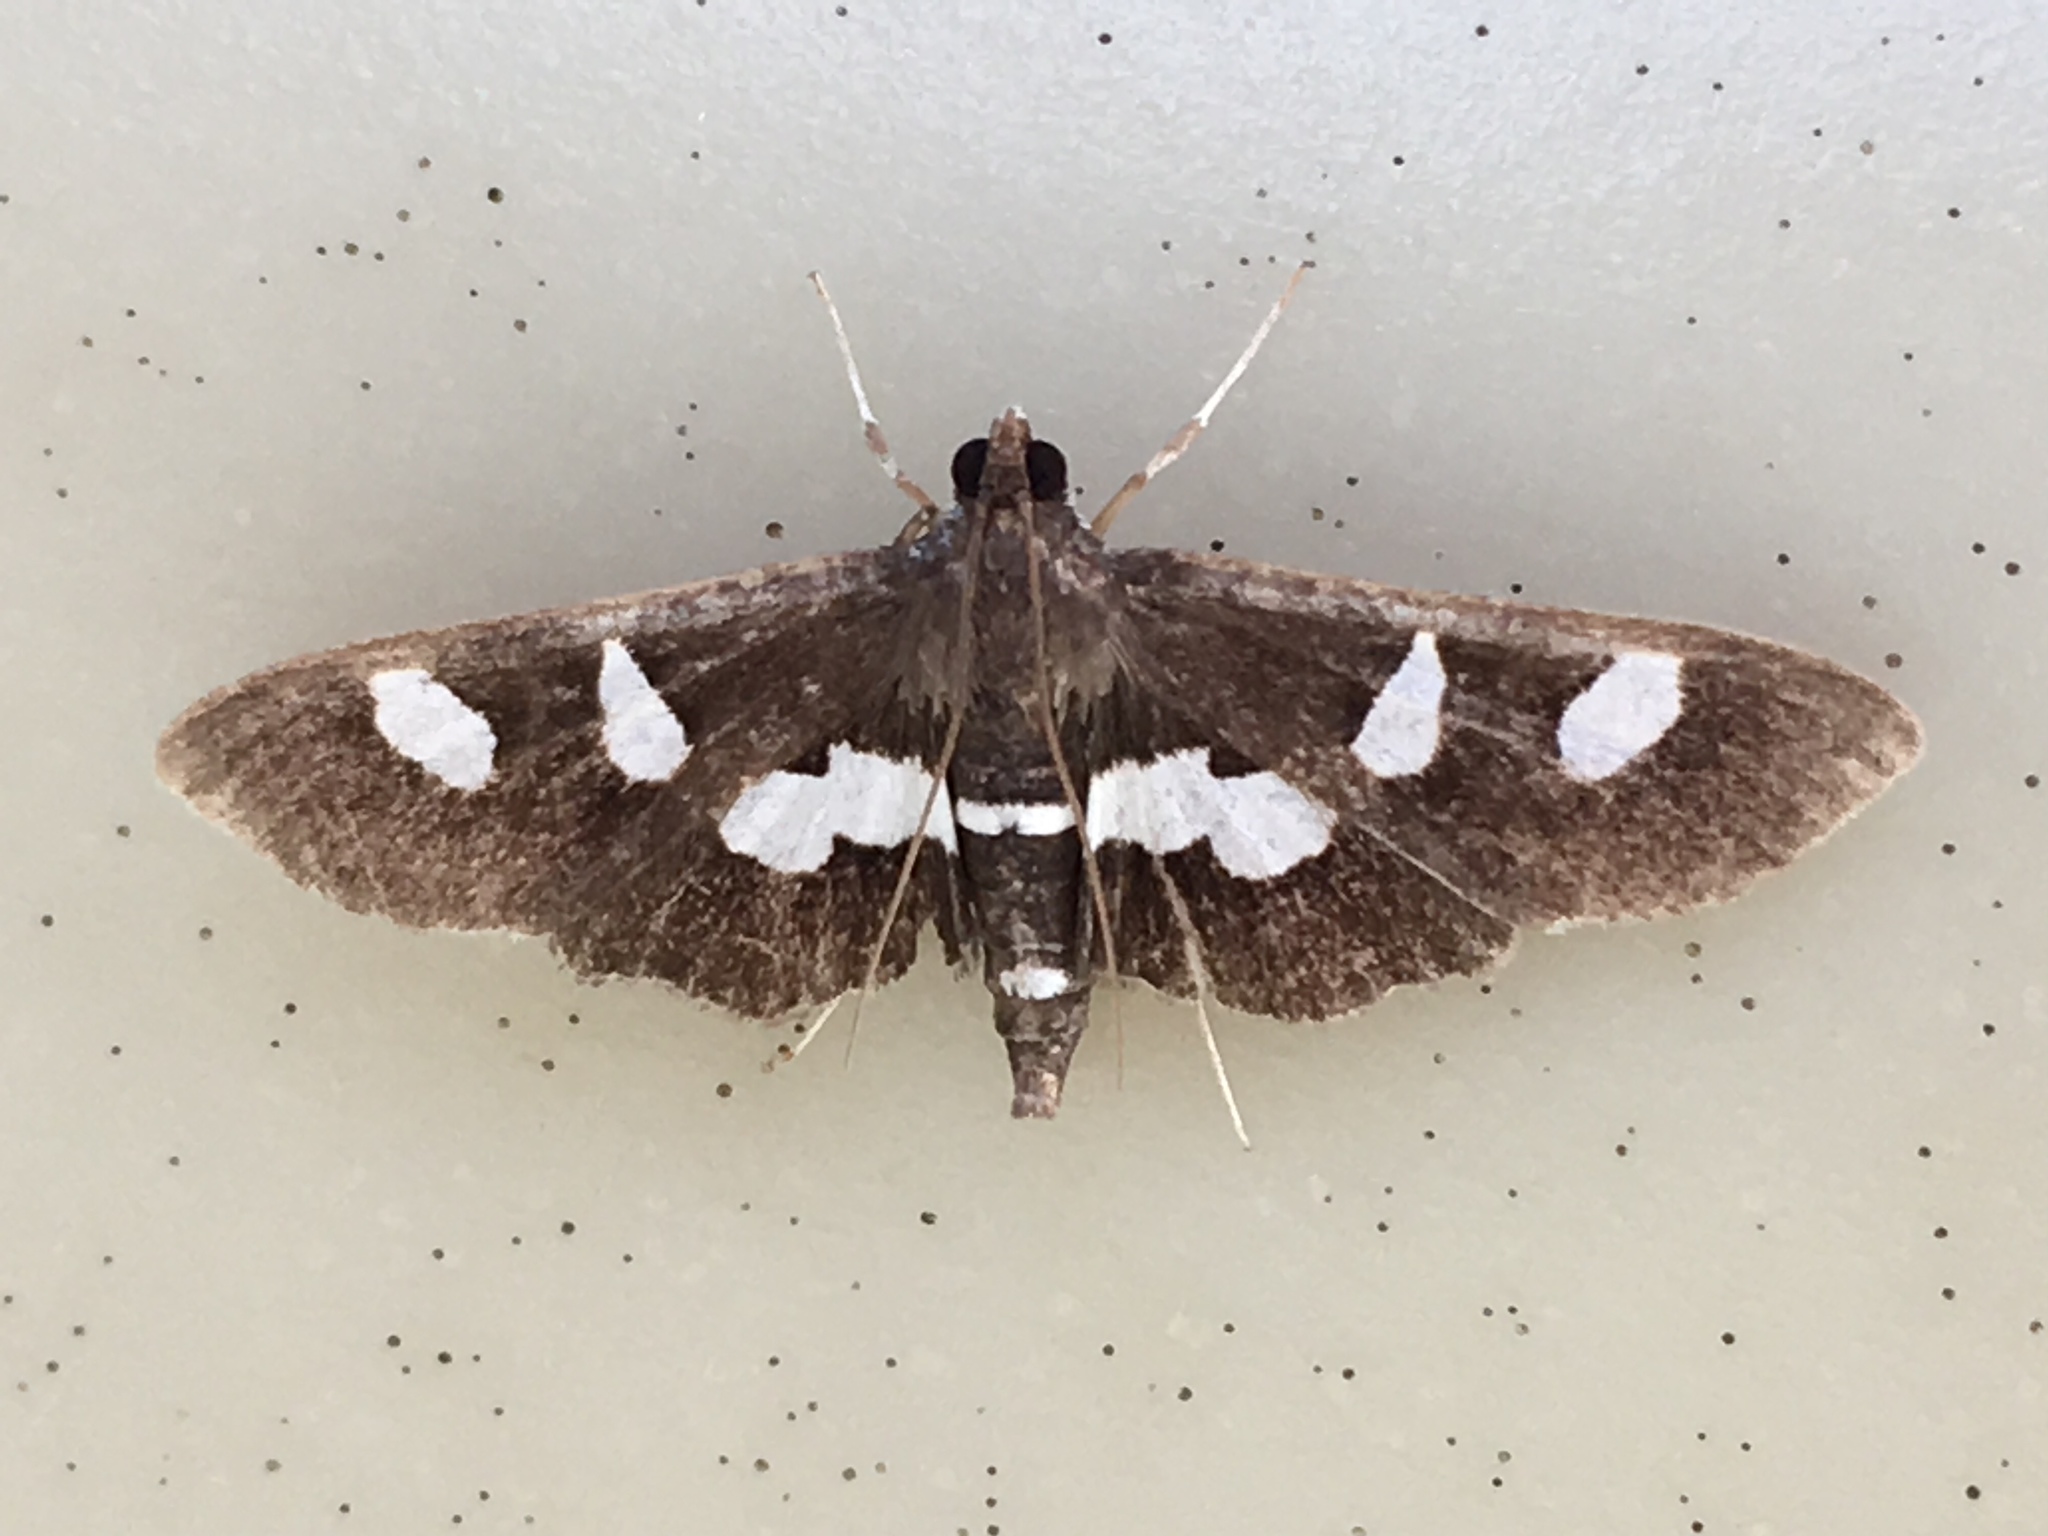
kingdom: Animalia
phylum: Arthropoda
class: Insecta
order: Lepidoptera
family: Crambidae
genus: Desmia
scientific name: Desmia
